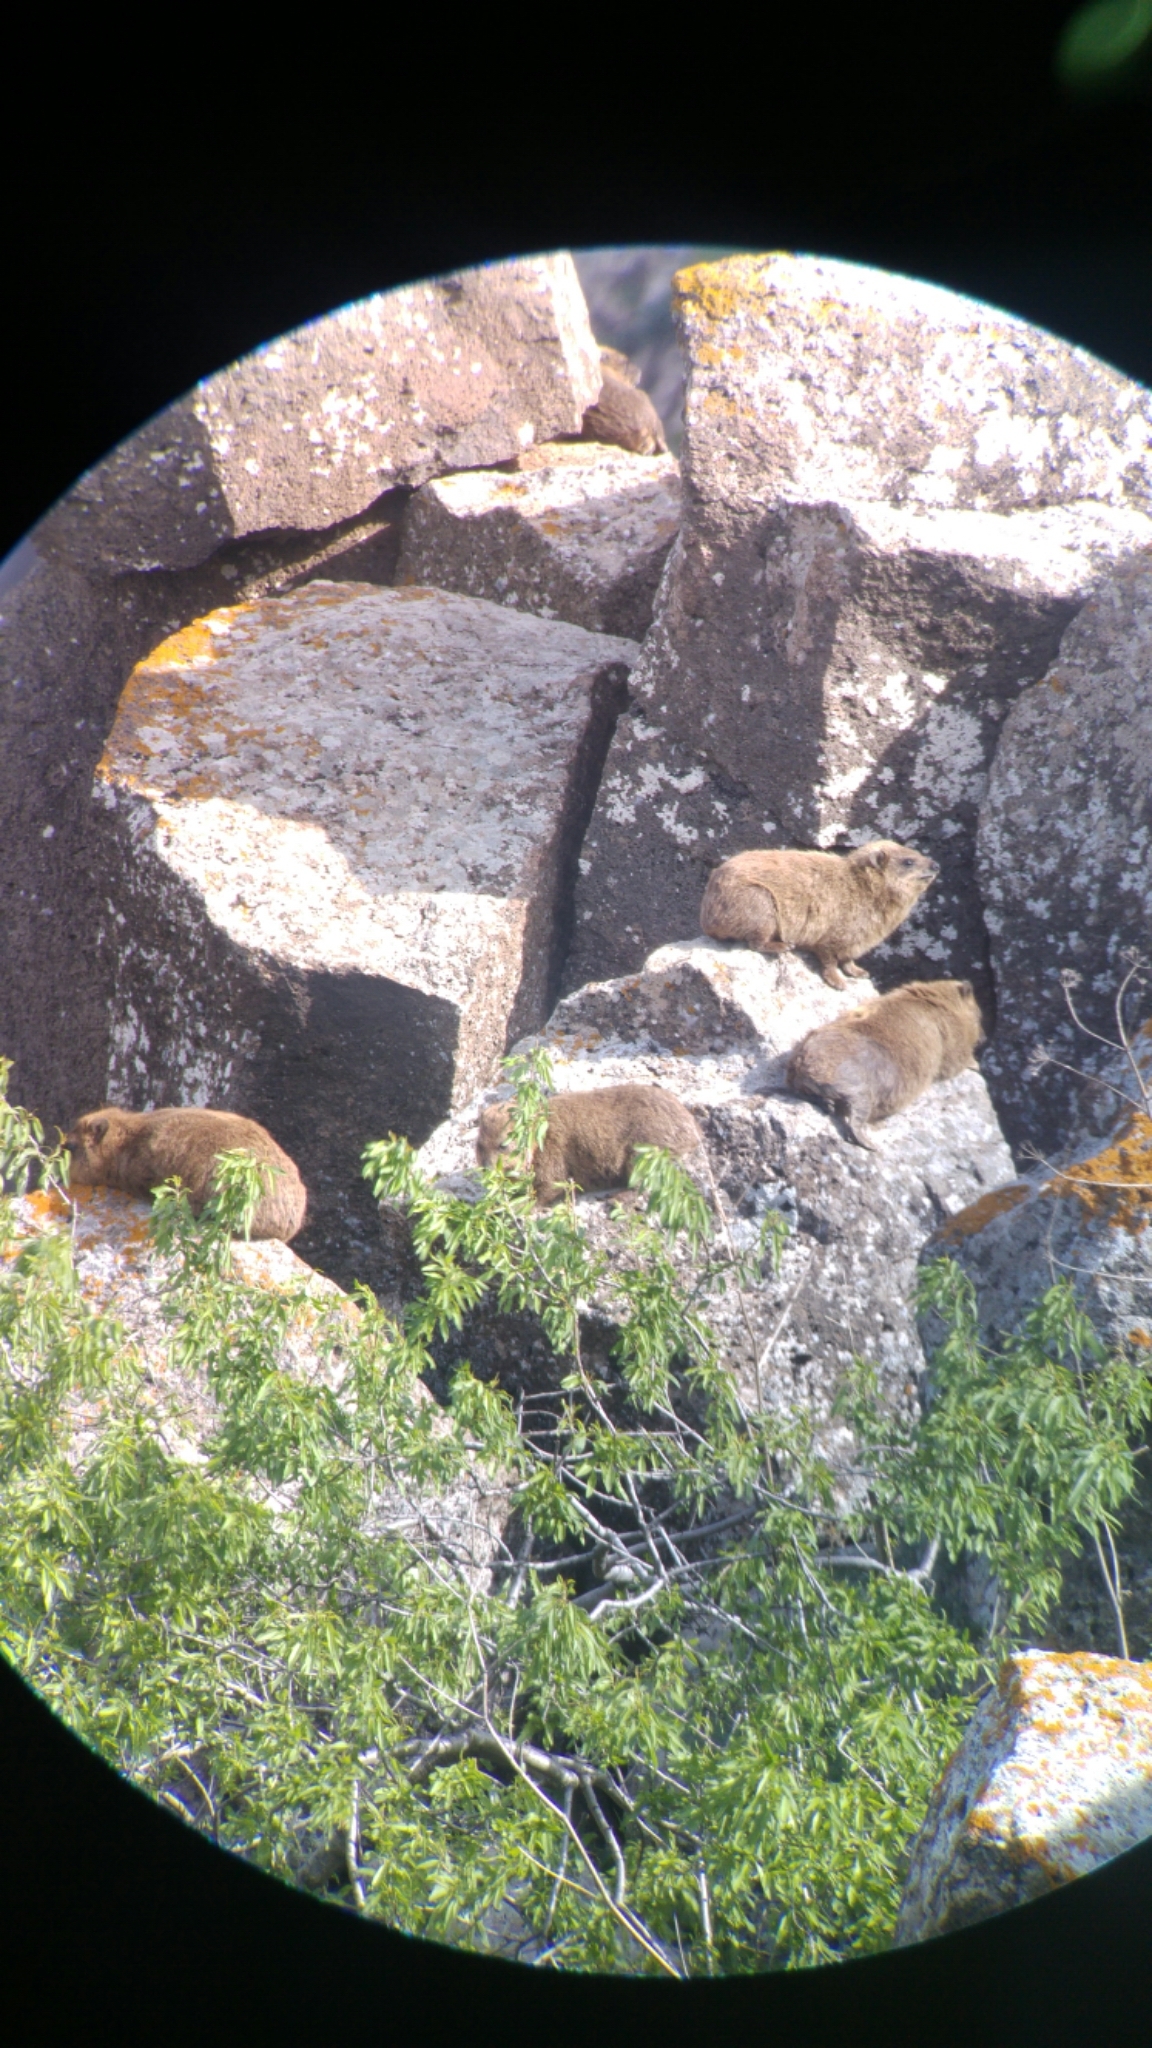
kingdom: Animalia
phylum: Chordata
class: Mammalia
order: Hyracoidea
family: Procaviidae
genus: Procavia
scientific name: Procavia capensis
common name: Rock hyrax
